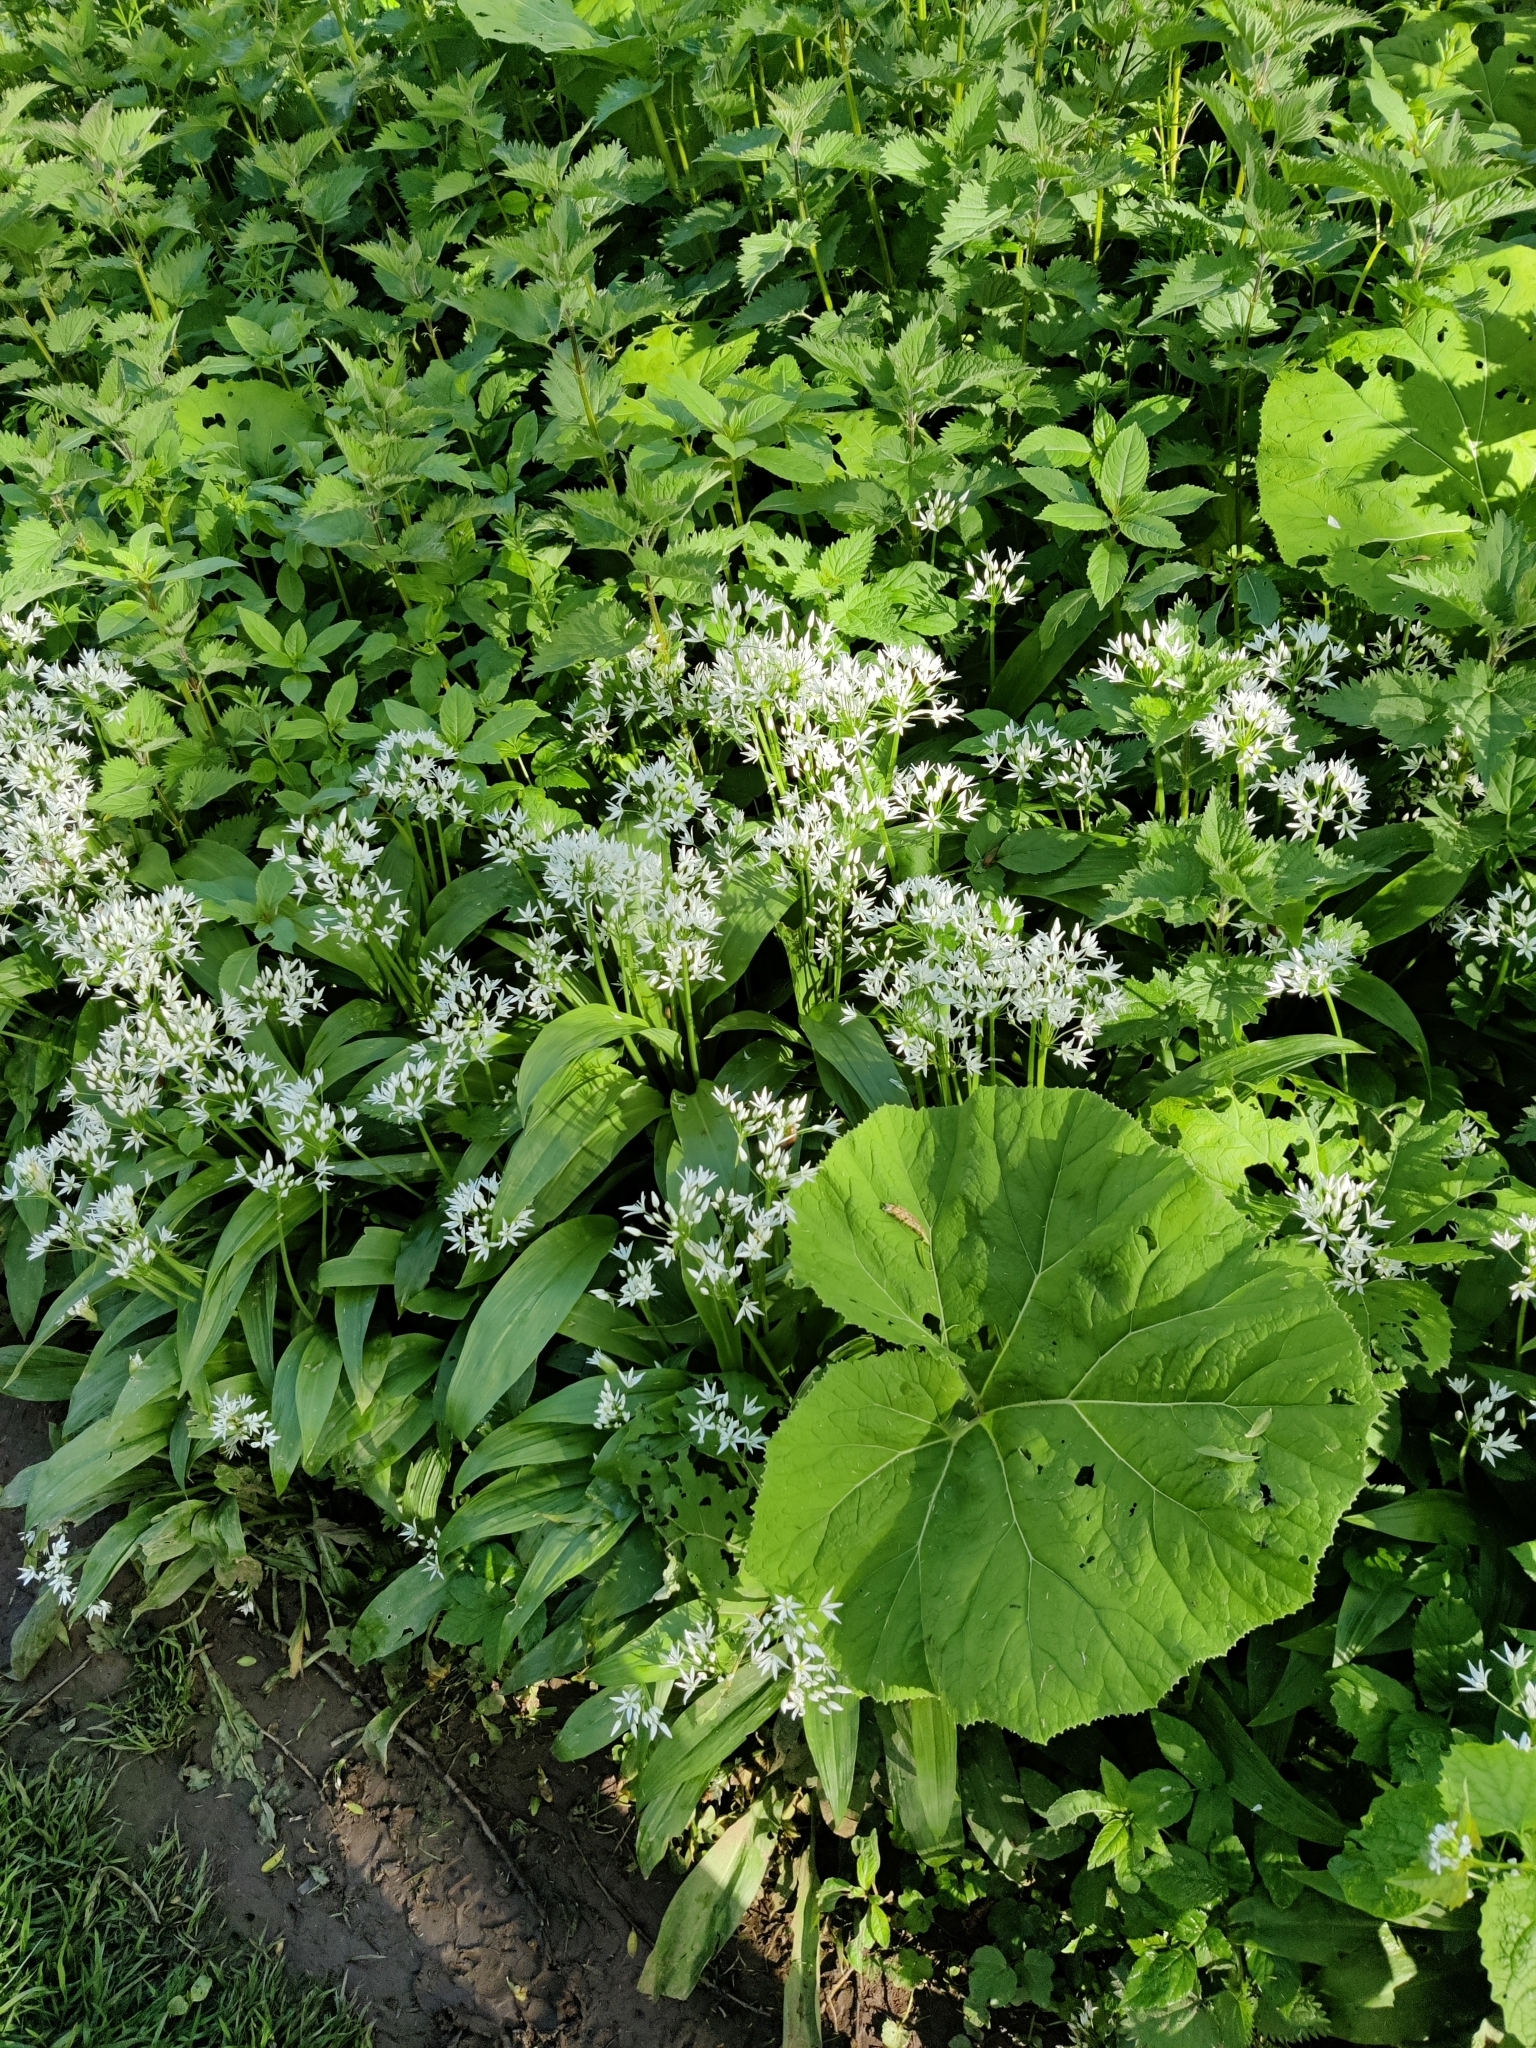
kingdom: Plantae
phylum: Tracheophyta
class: Liliopsida
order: Asparagales
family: Amaryllidaceae
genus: Allium
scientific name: Allium ursinum
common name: Ramsons
